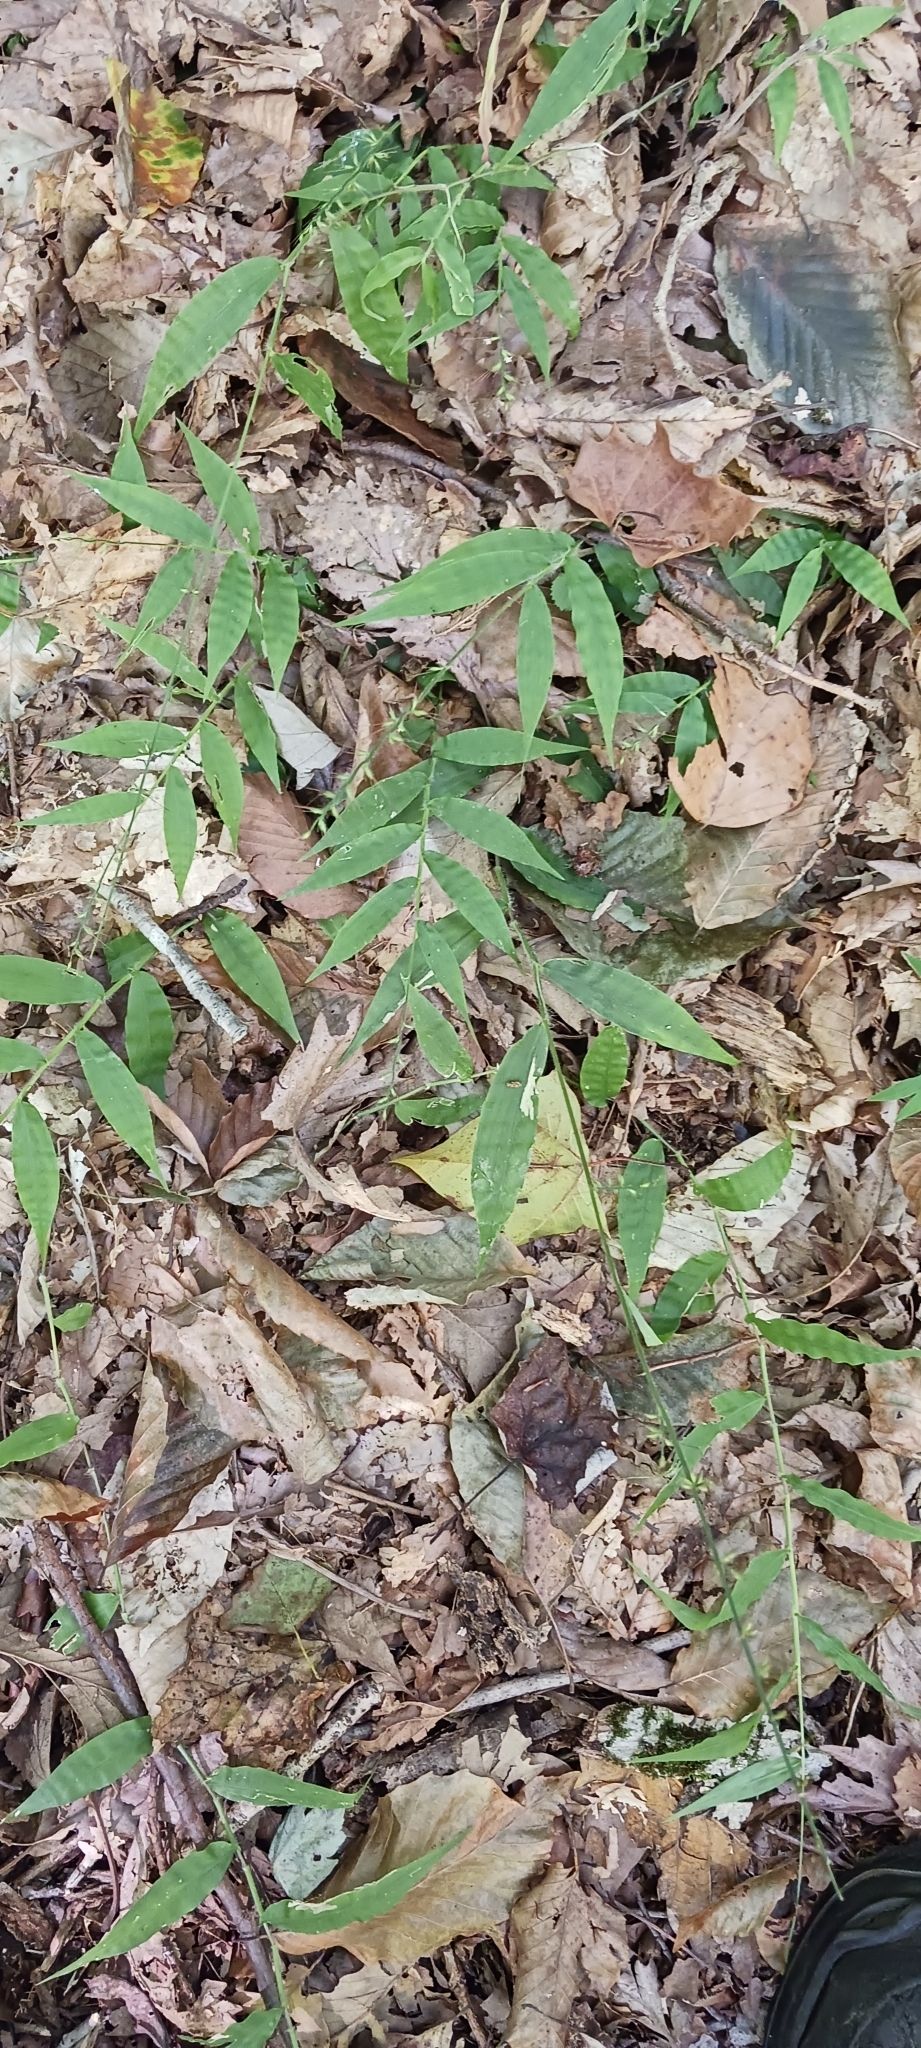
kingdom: Plantae
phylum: Tracheophyta
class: Liliopsida
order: Poales
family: Poaceae
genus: Oplismenus
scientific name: Oplismenus undulatifolius
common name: Wavyleaf basketgrass
